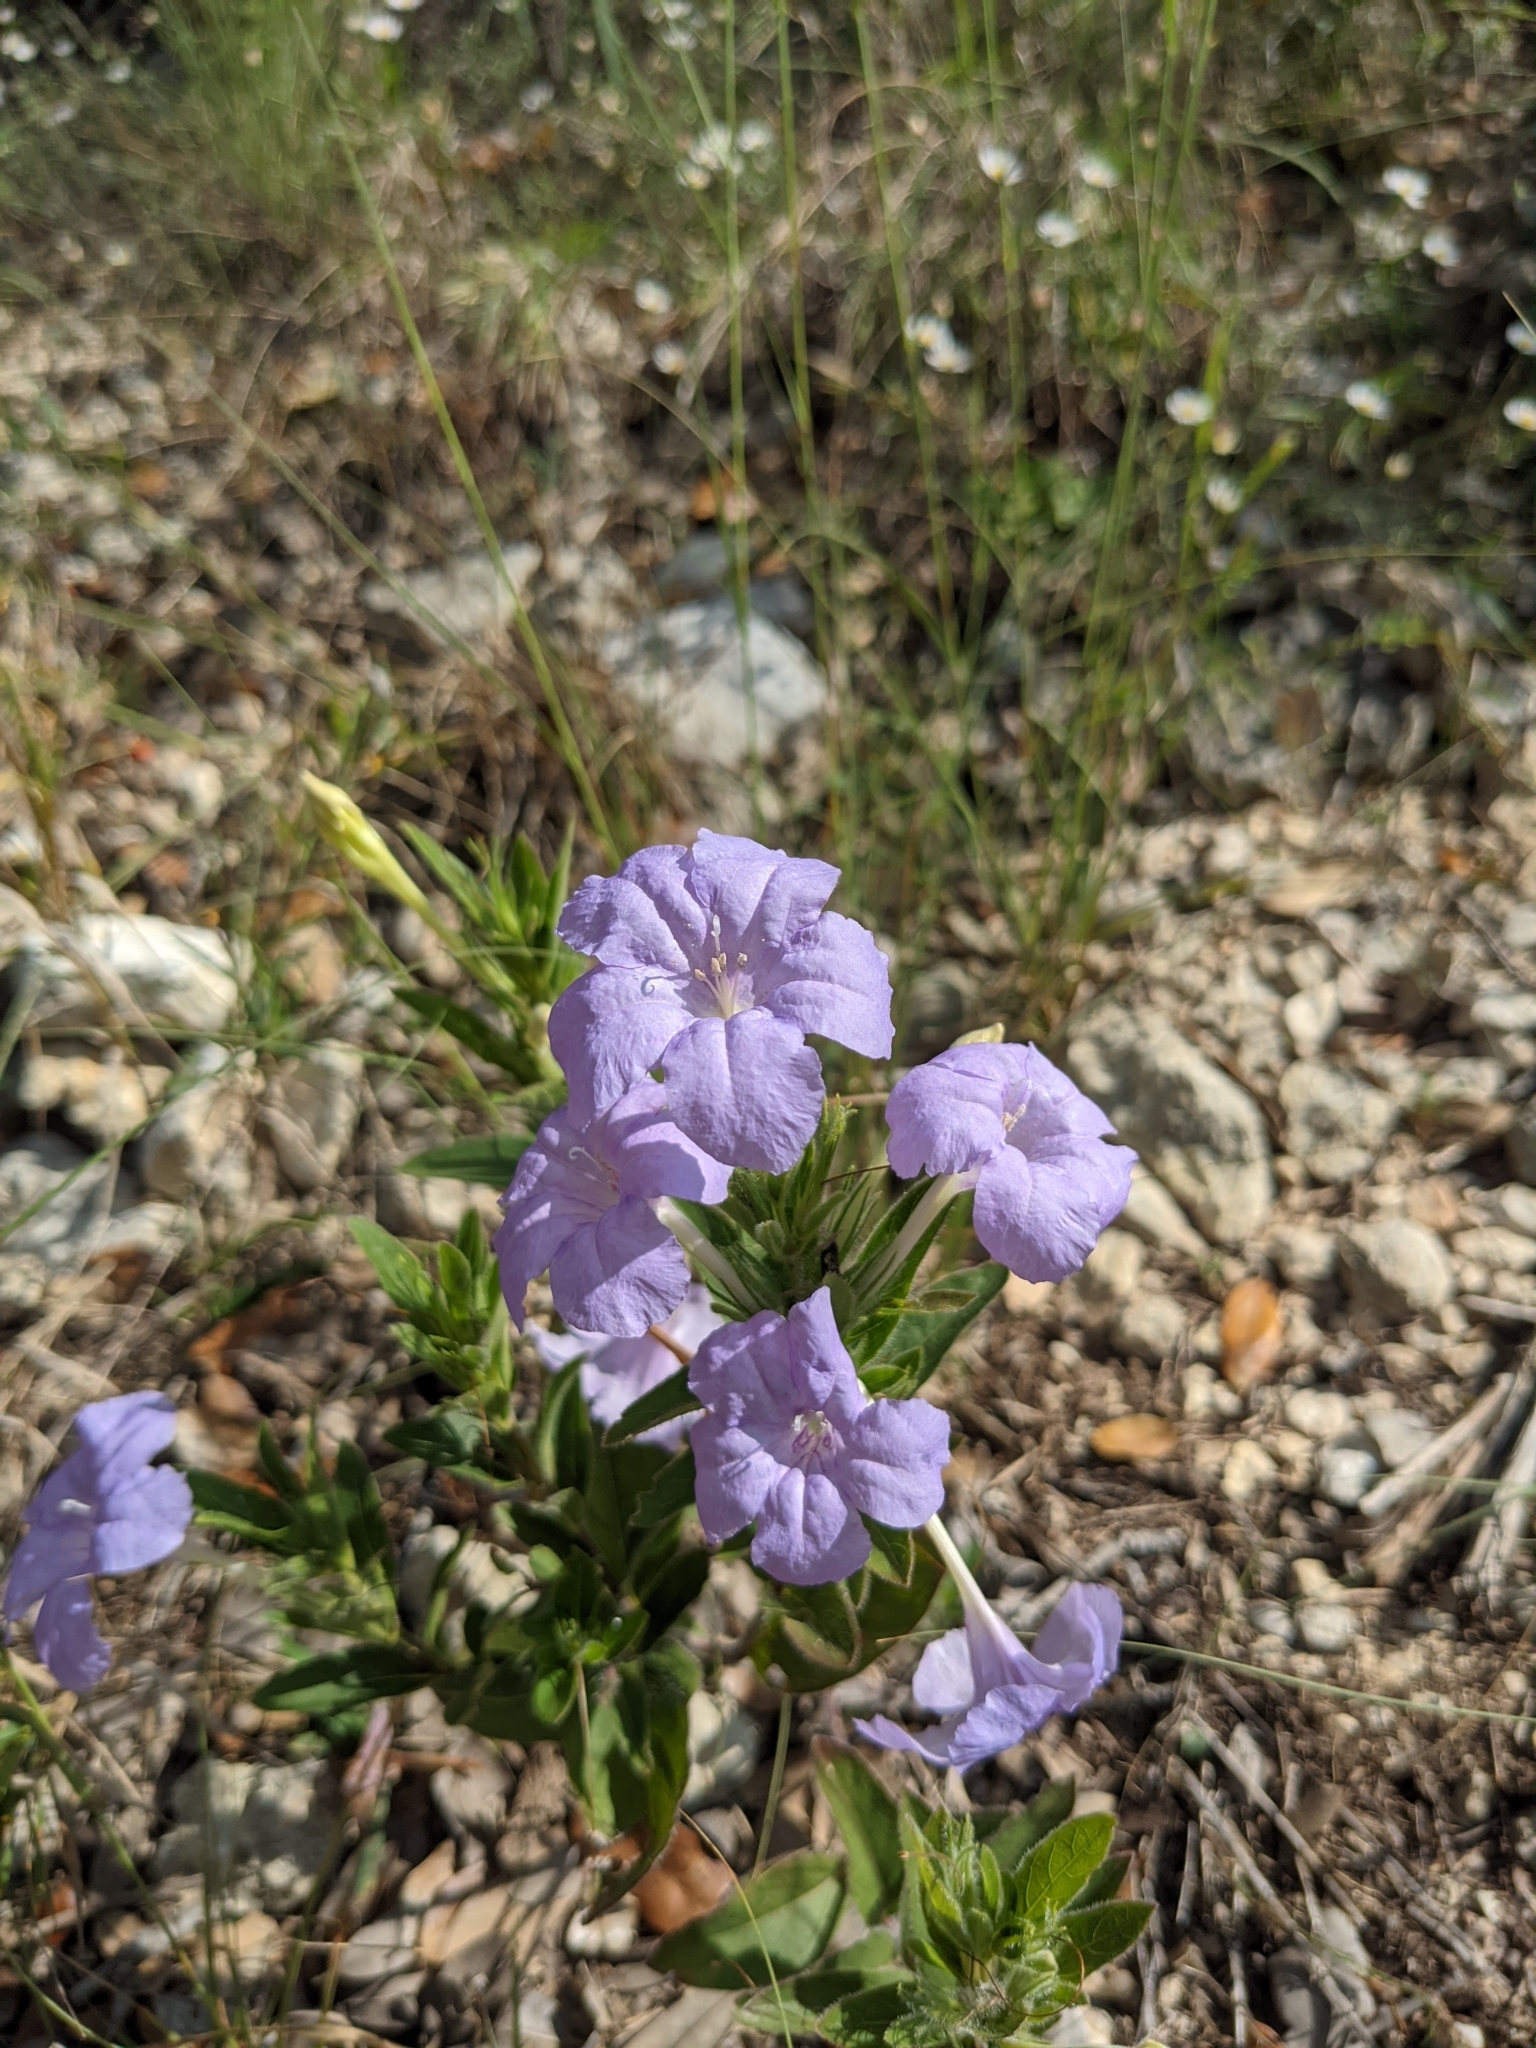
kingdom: Plantae
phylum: Tracheophyta
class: Magnoliopsida
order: Lamiales
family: Acanthaceae
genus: Ruellia
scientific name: Ruellia humilis
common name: Fringe-leaf ruellia
